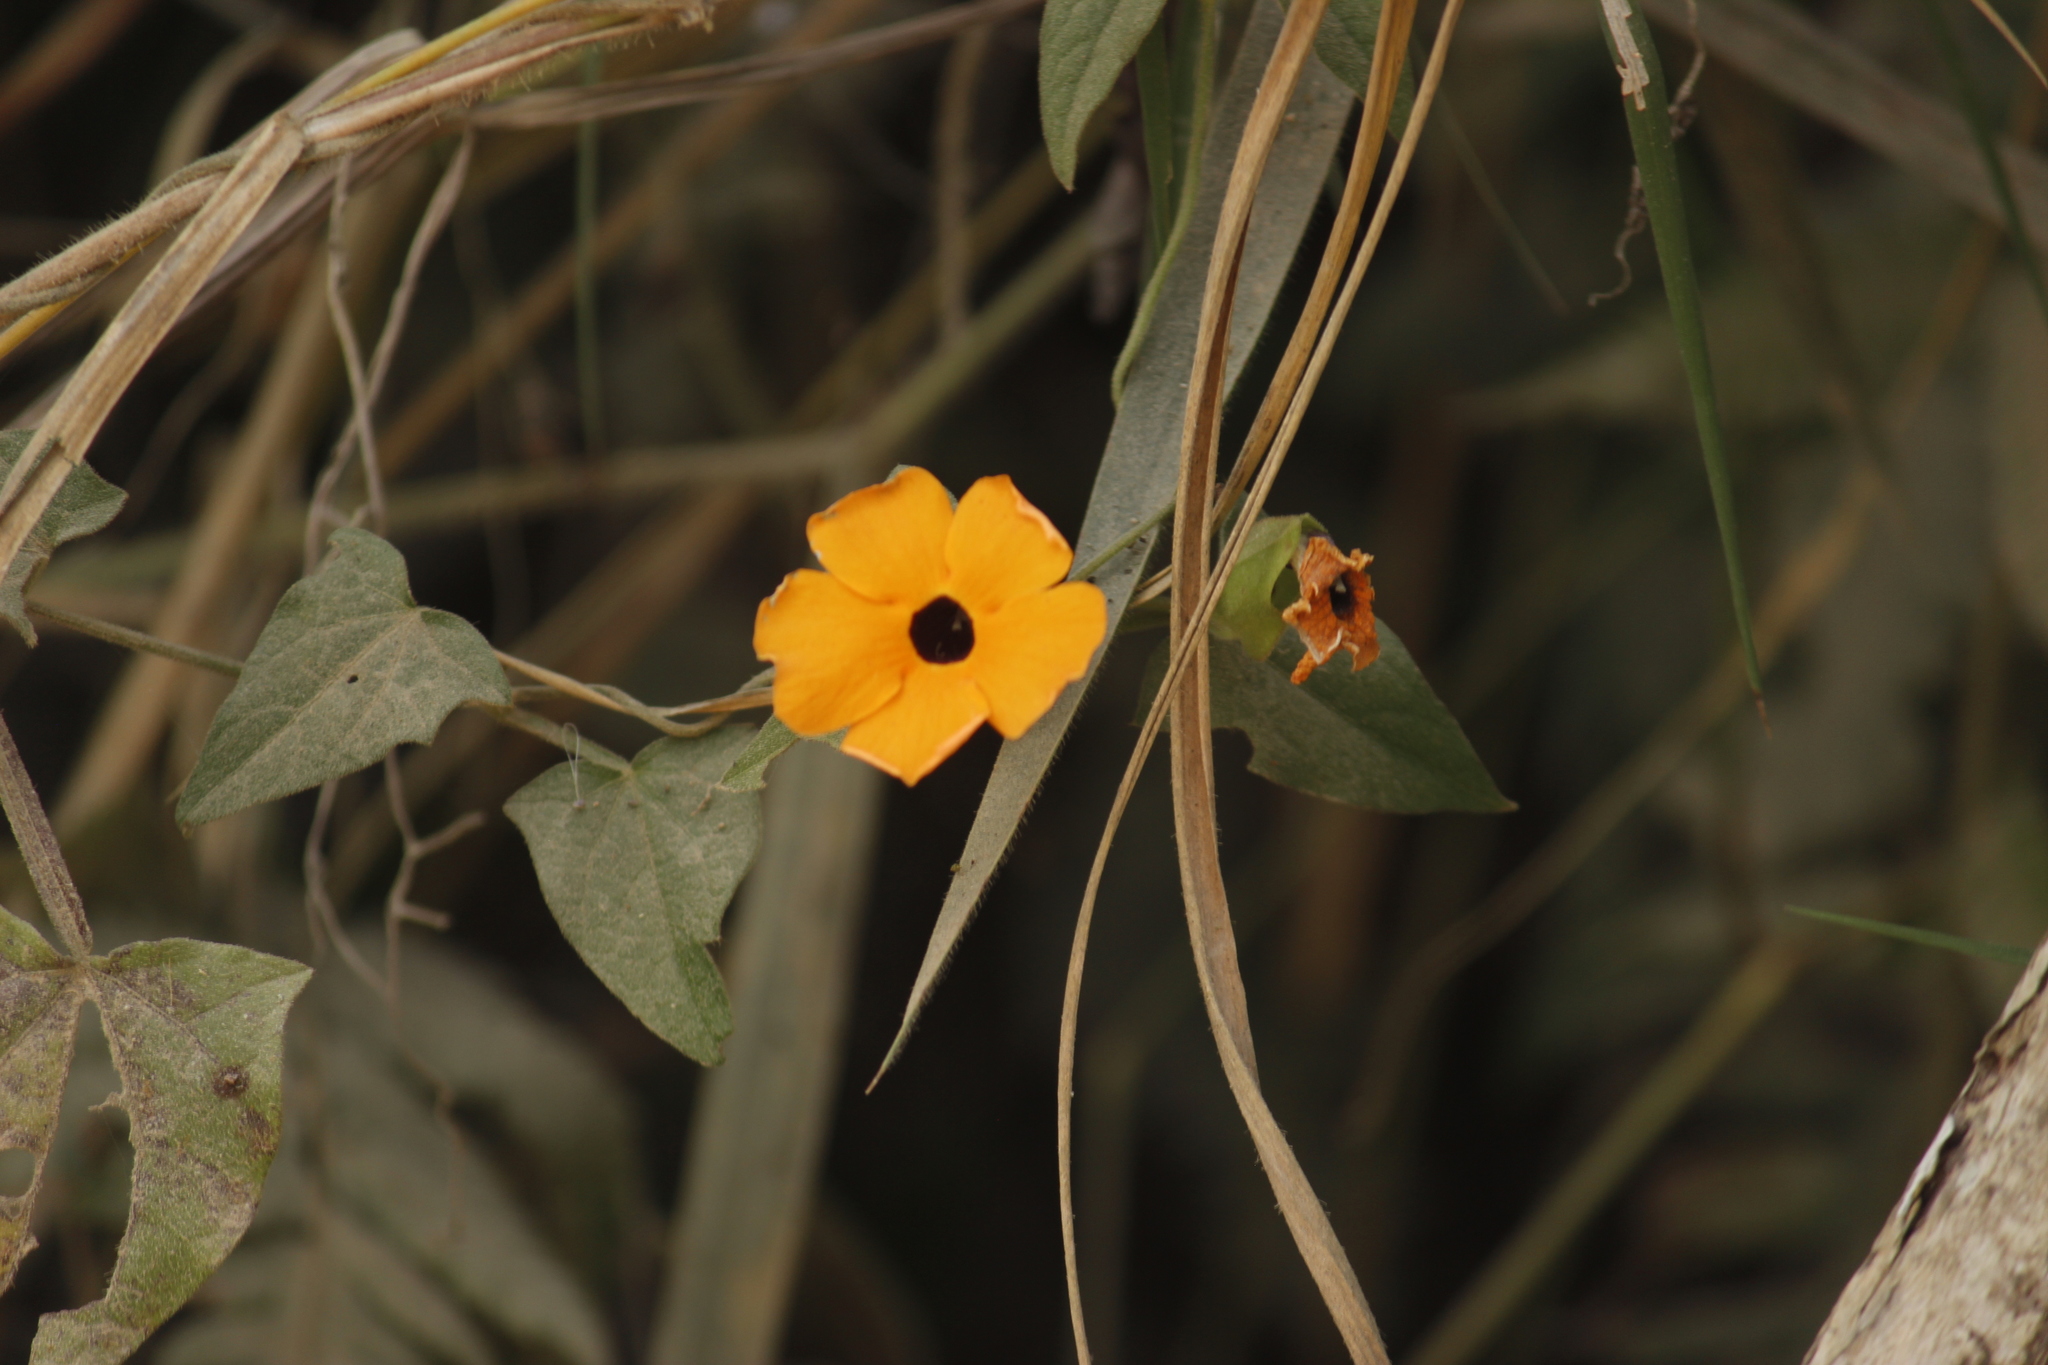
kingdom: Plantae
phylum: Tracheophyta
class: Magnoliopsida
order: Lamiales
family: Acanthaceae
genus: Thunbergia
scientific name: Thunbergia alata
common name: Blackeyed susan vine
